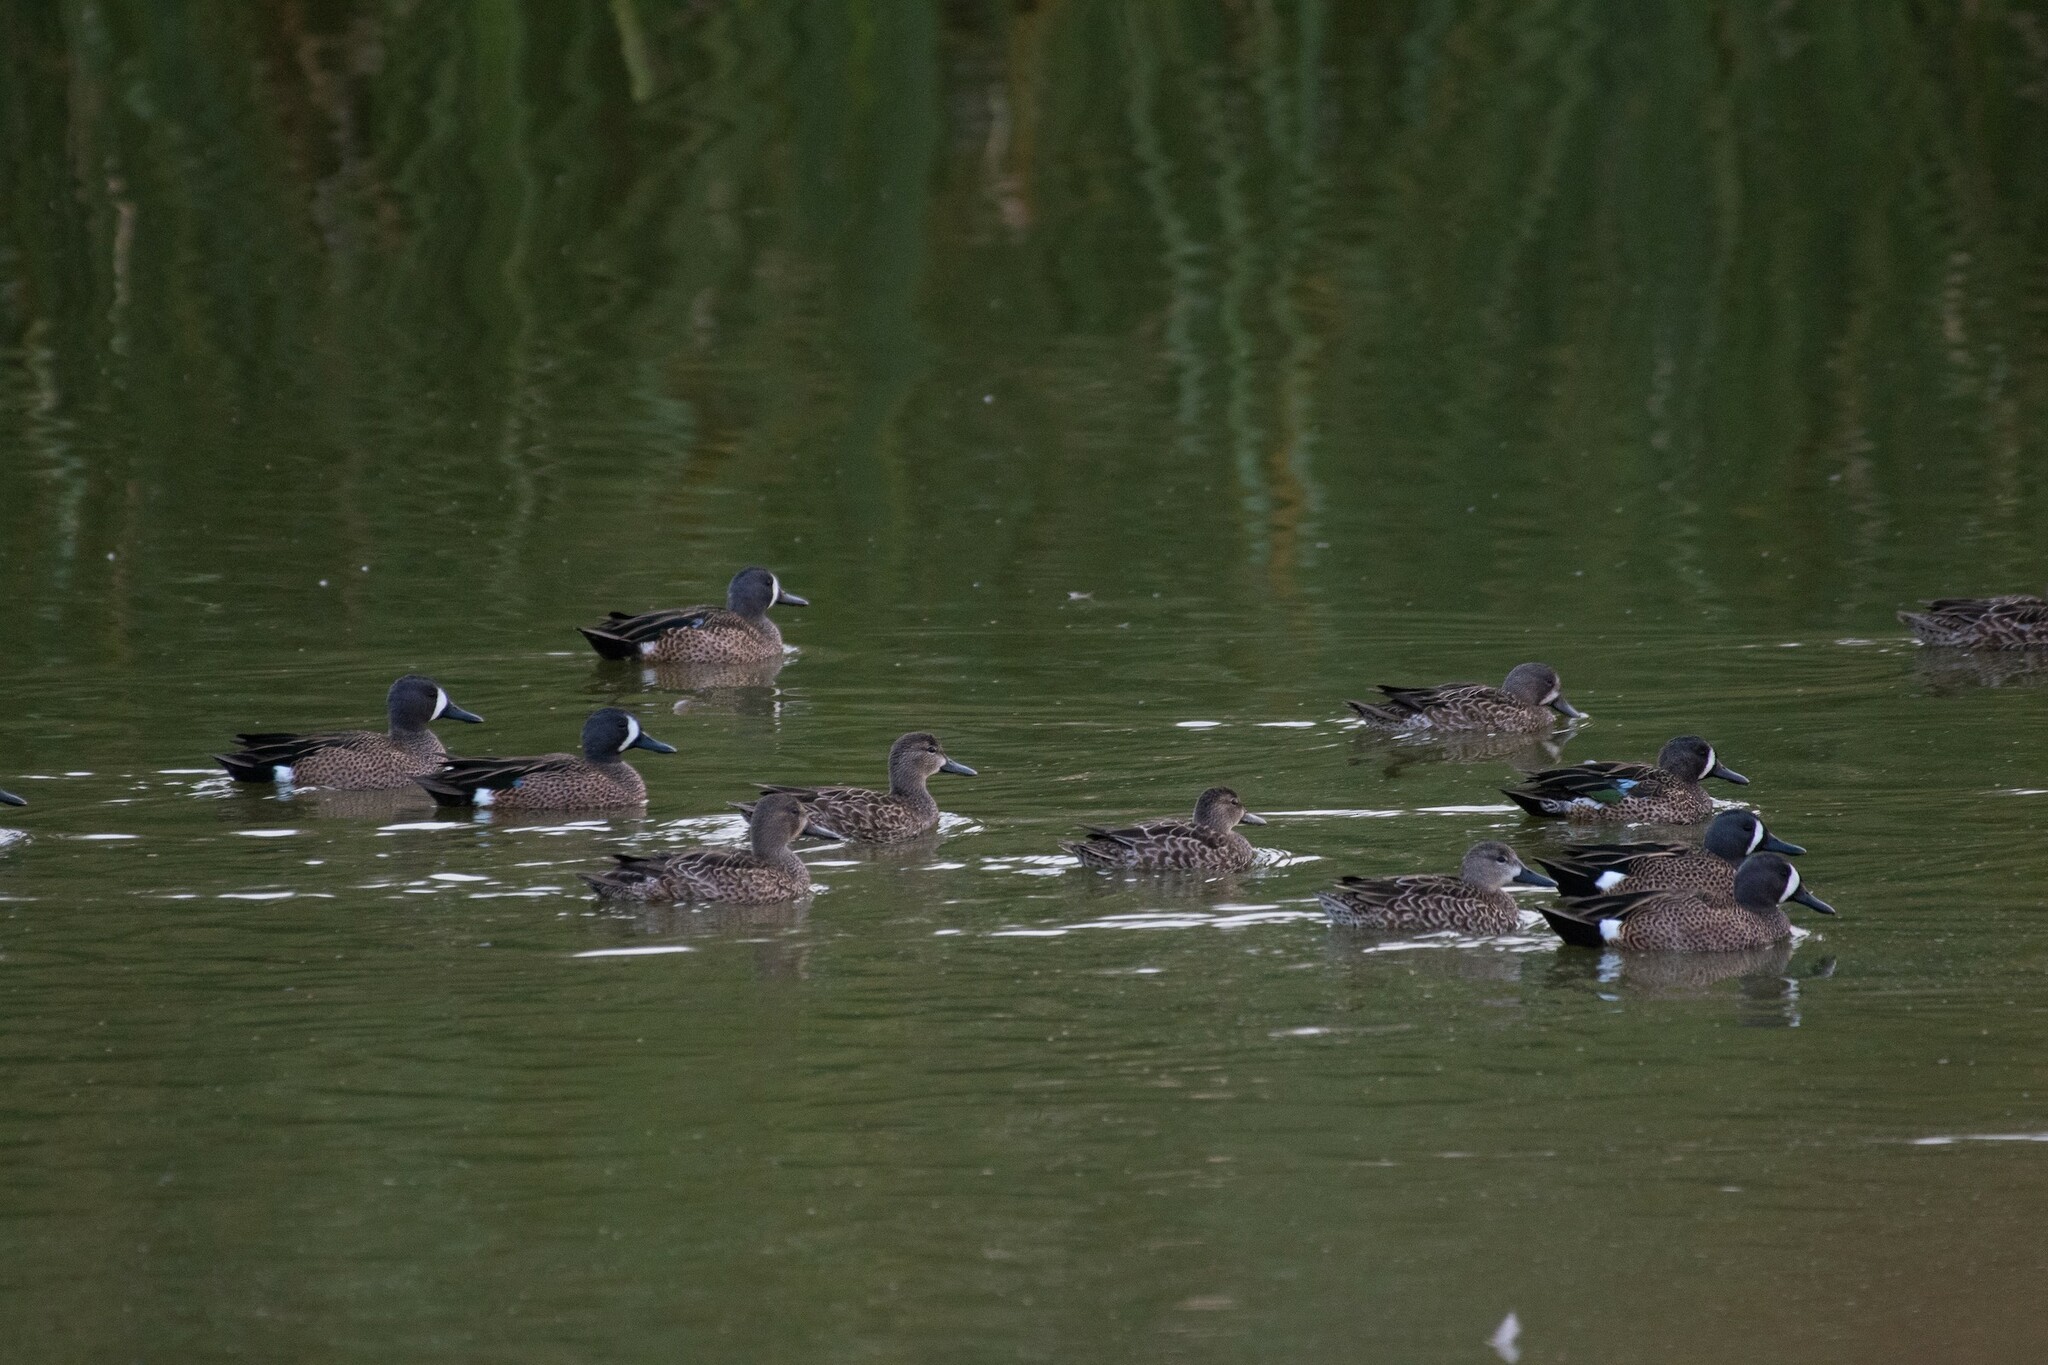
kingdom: Animalia
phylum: Chordata
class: Aves
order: Anseriformes
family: Anatidae
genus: Spatula
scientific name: Spatula discors
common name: Blue-winged teal
